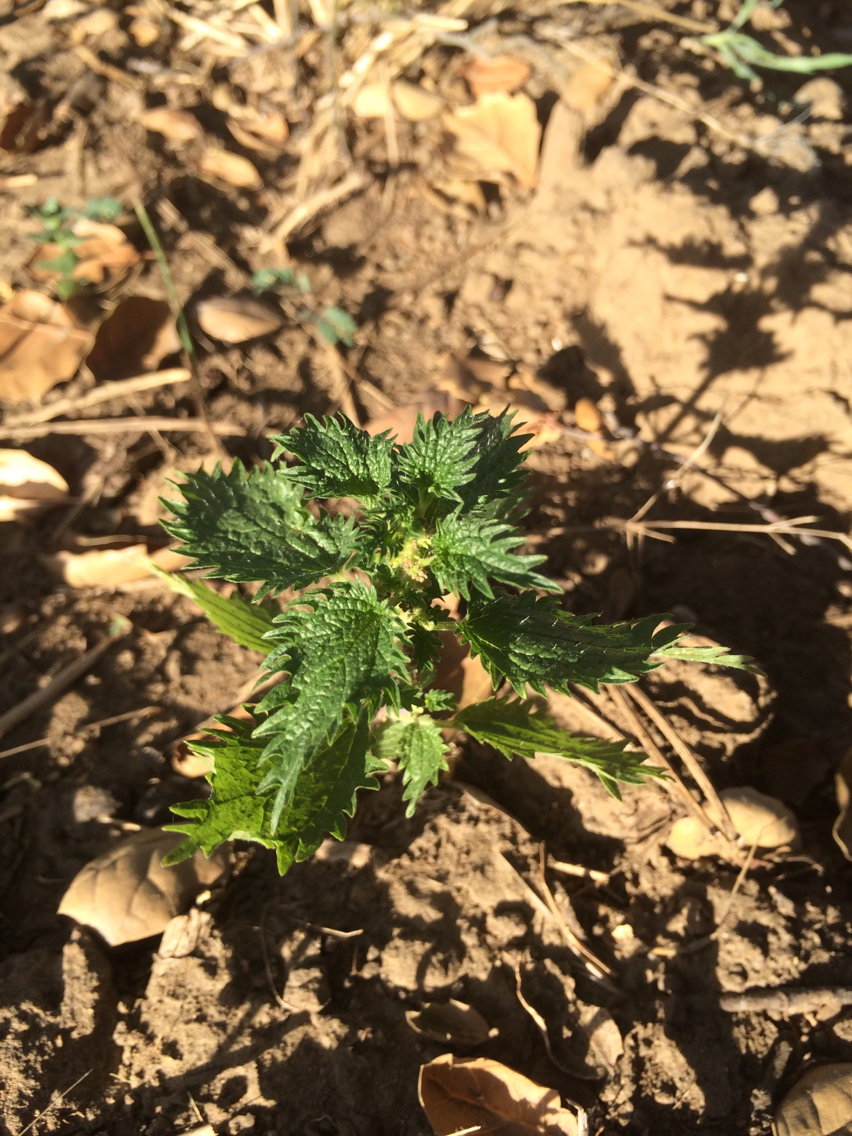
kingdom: Plantae
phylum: Tracheophyta
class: Magnoliopsida
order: Rosales
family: Urticaceae
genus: Urtica
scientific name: Urtica urens
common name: Dwarf nettle
